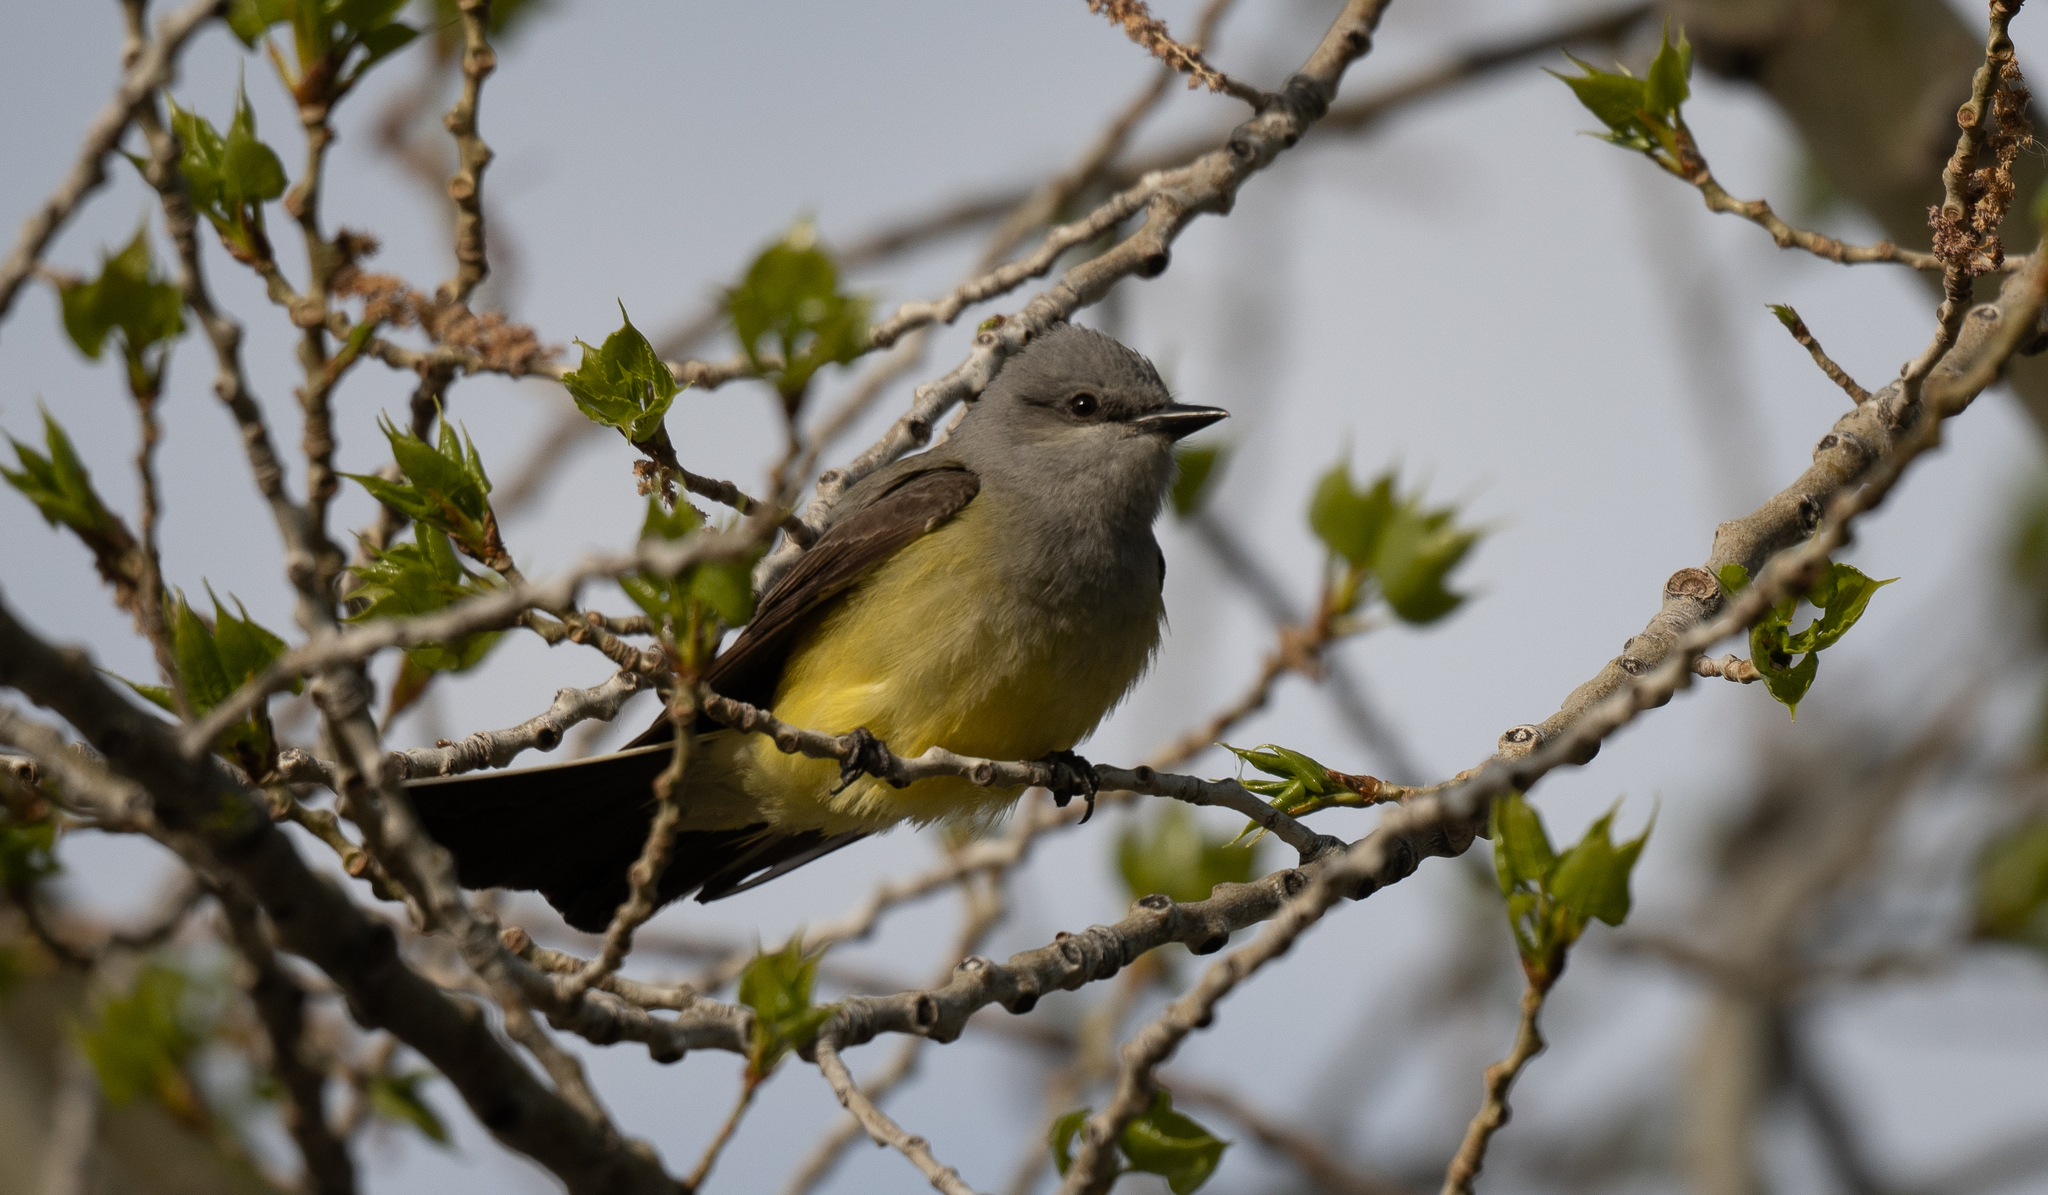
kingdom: Animalia
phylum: Chordata
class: Aves
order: Passeriformes
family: Tyrannidae
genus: Tyrannus
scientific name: Tyrannus verticalis
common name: Western kingbird
